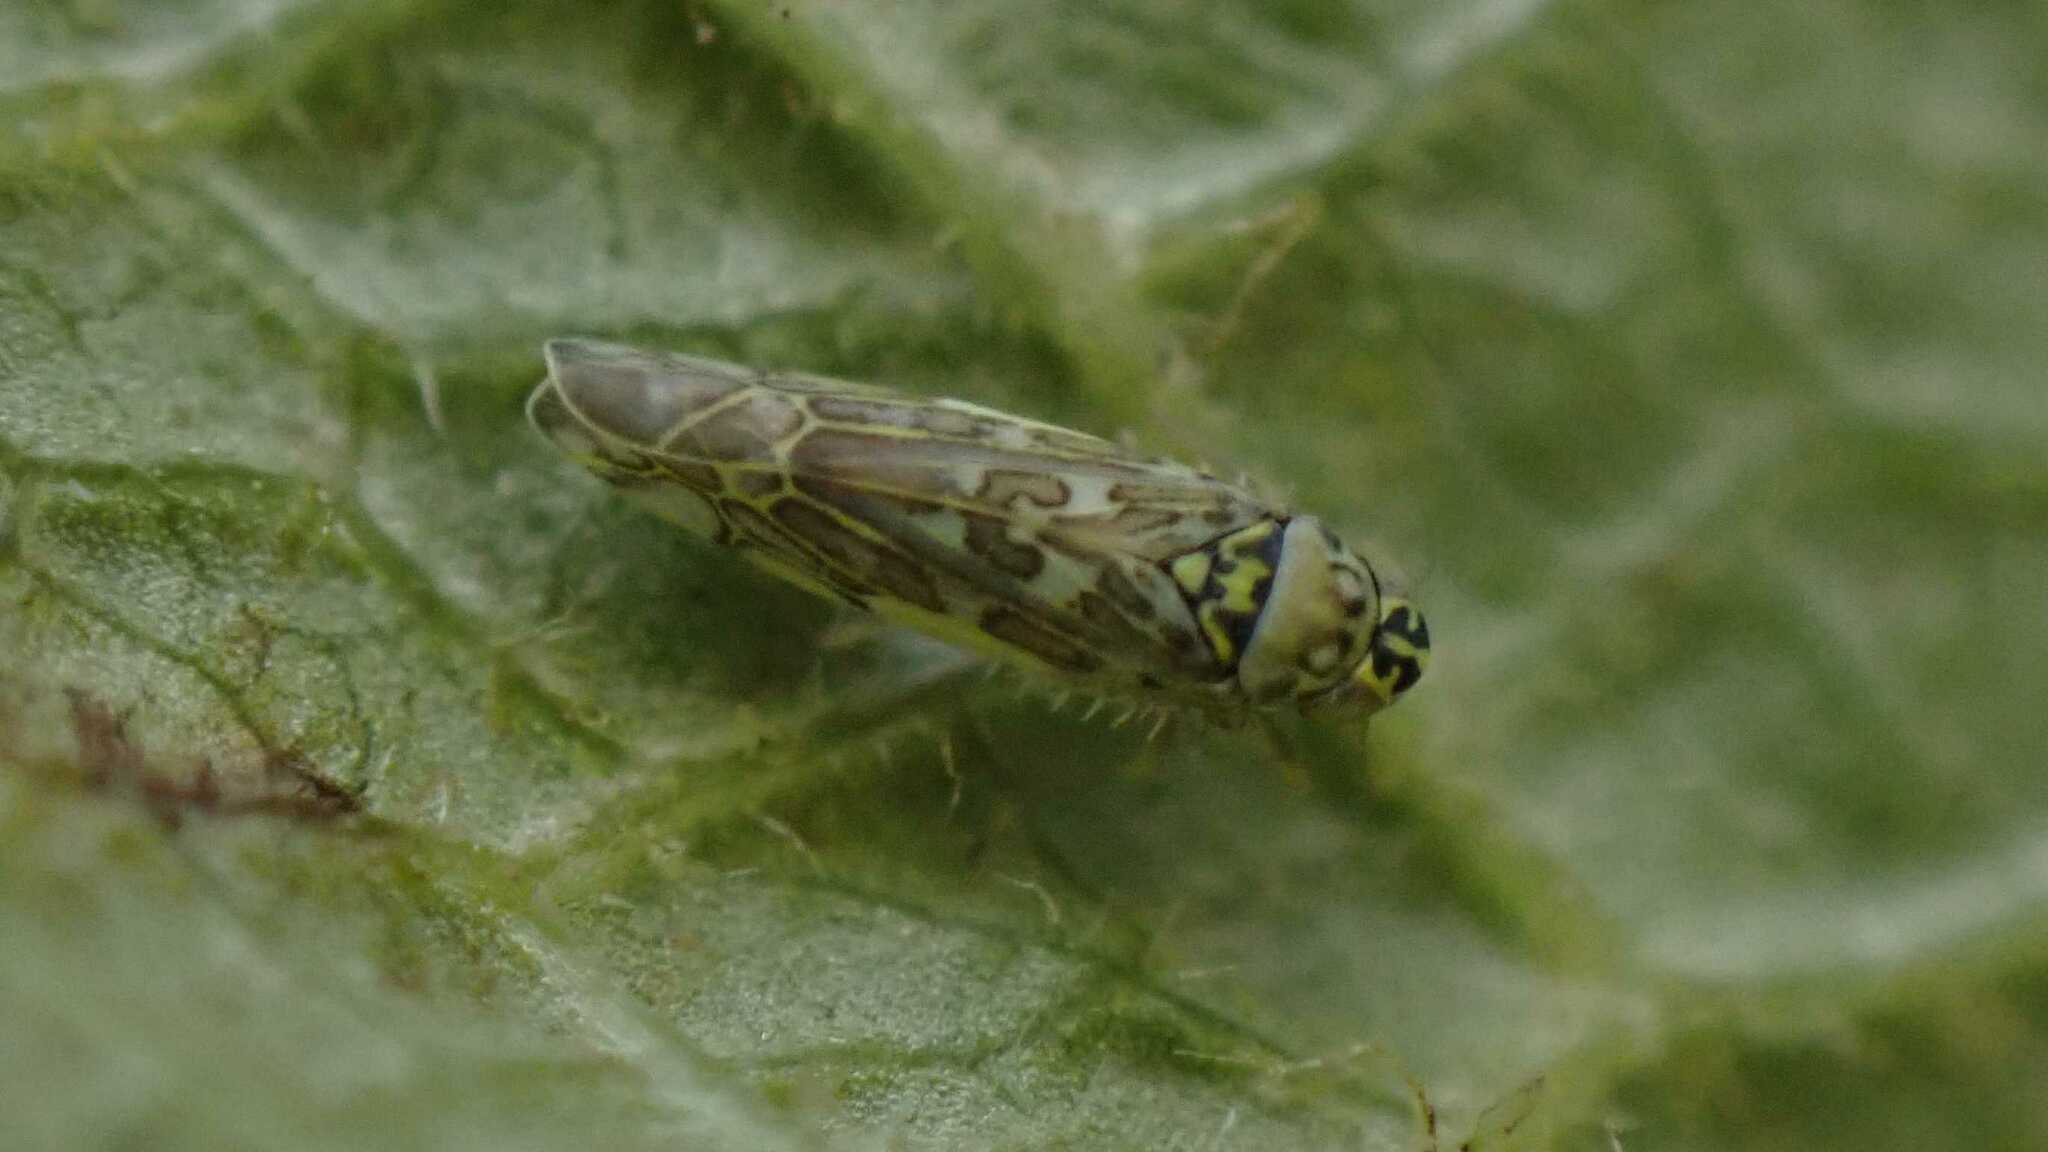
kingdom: Animalia
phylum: Arthropoda
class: Insecta
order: Hemiptera
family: Cicadellidae
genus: Eupteryx
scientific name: Eupteryx decemnotata
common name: Ligurian leafhopper
